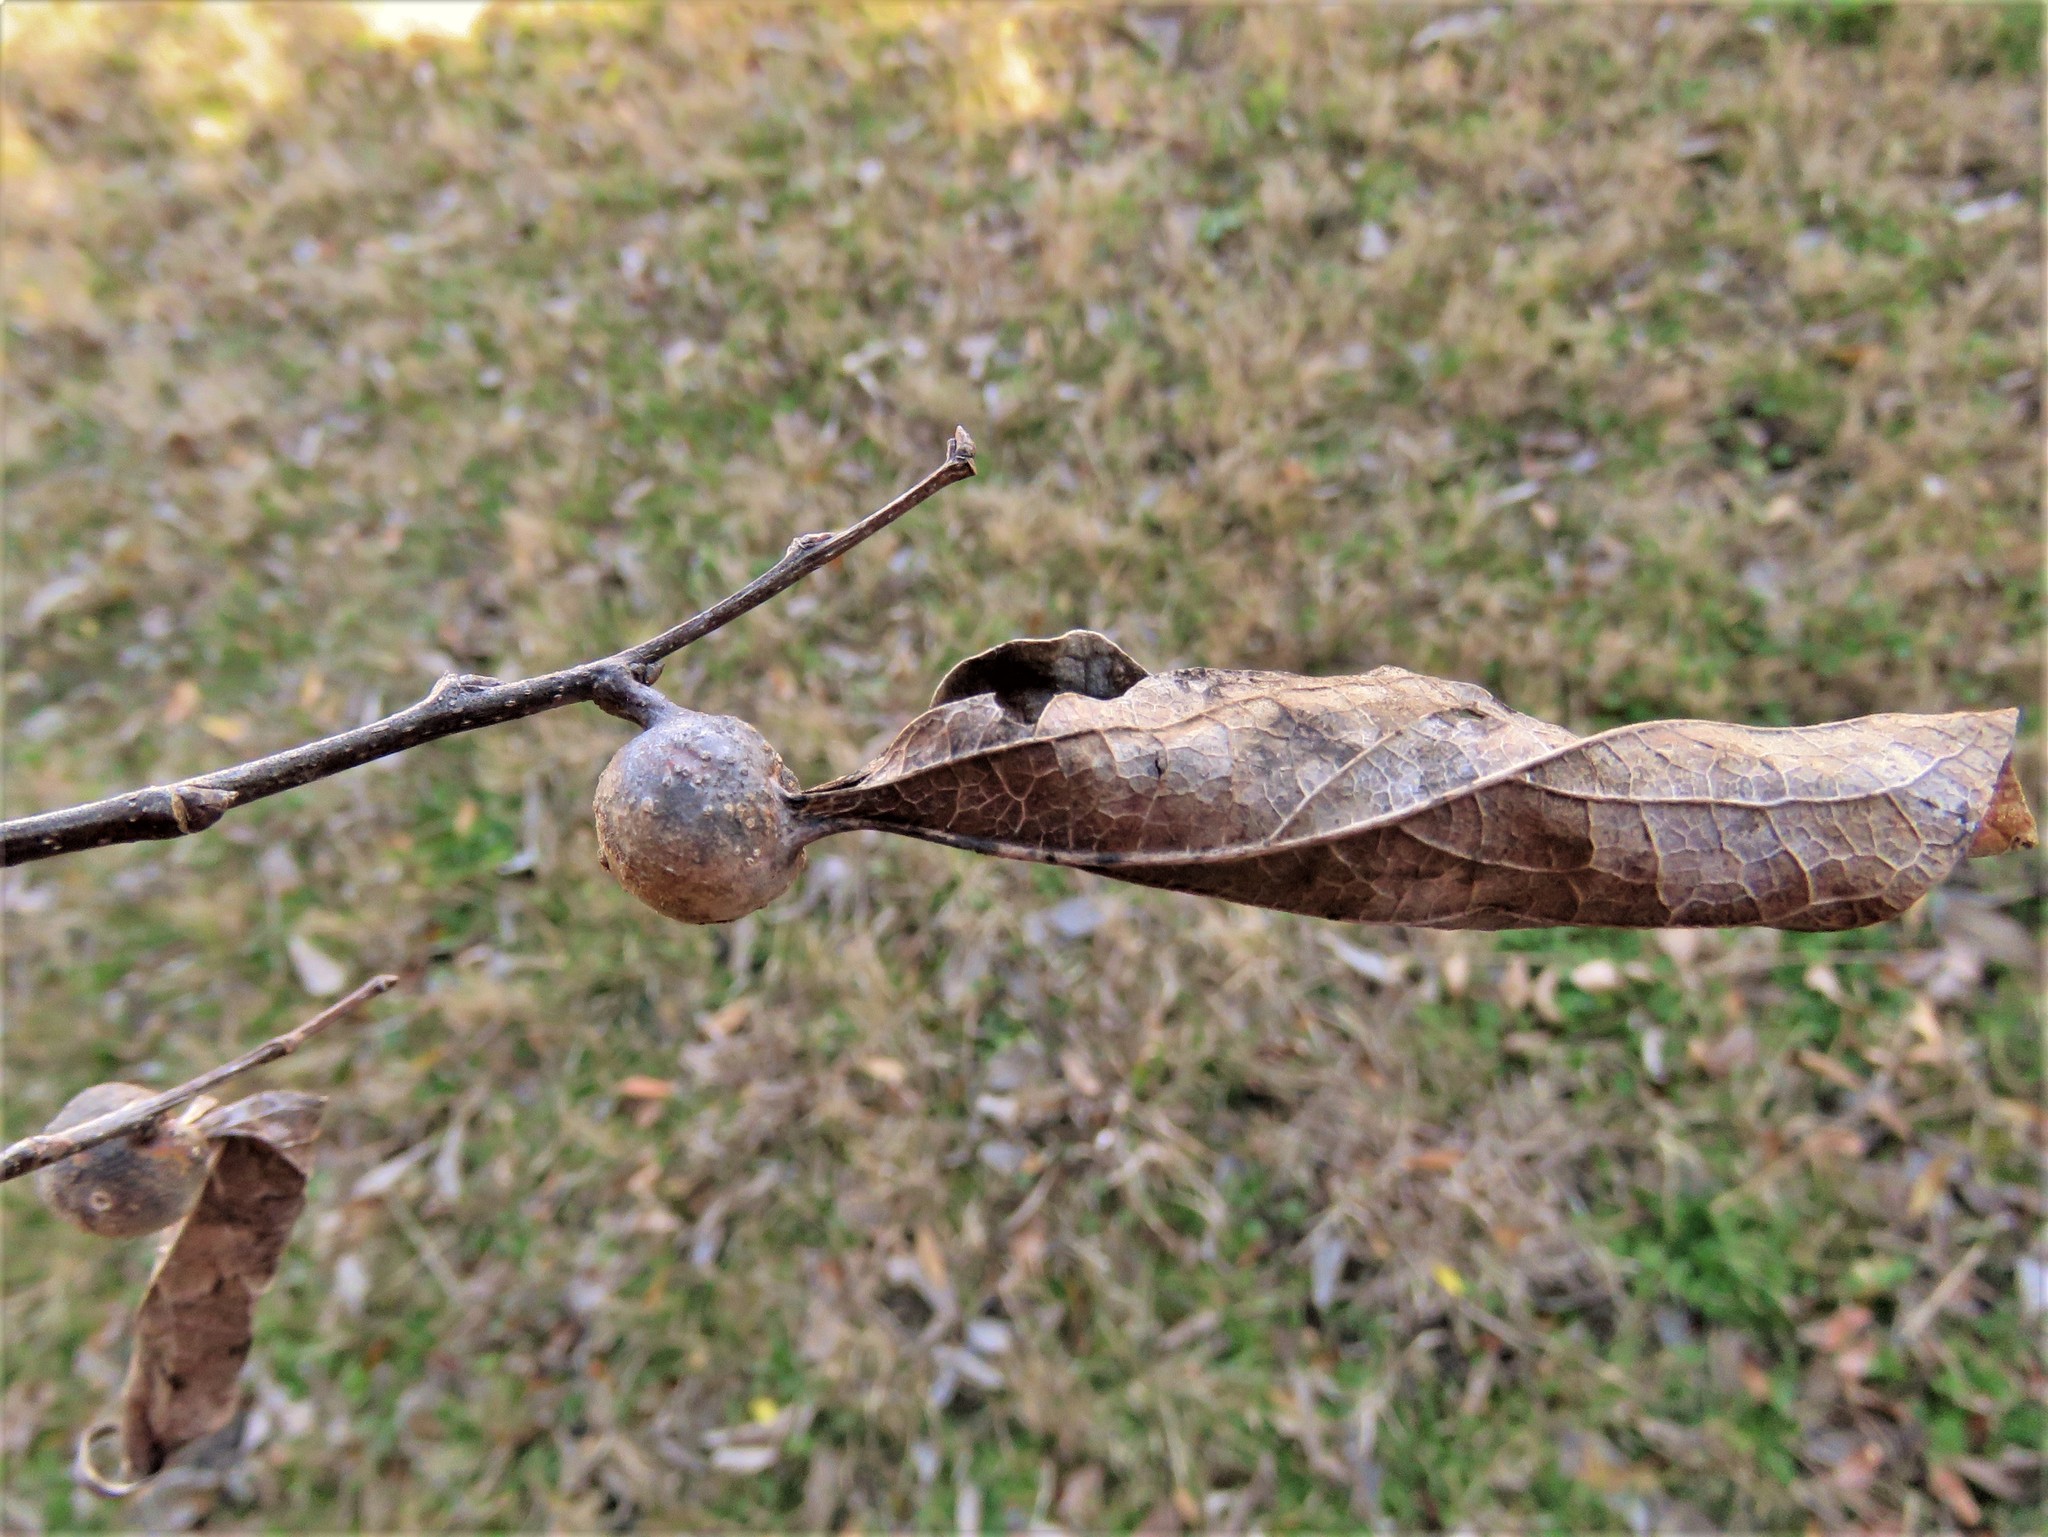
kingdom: Animalia
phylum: Arthropoda
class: Insecta
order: Hemiptera
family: Aphalaridae
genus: Pachypsylla
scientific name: Pachypsylla venusta
